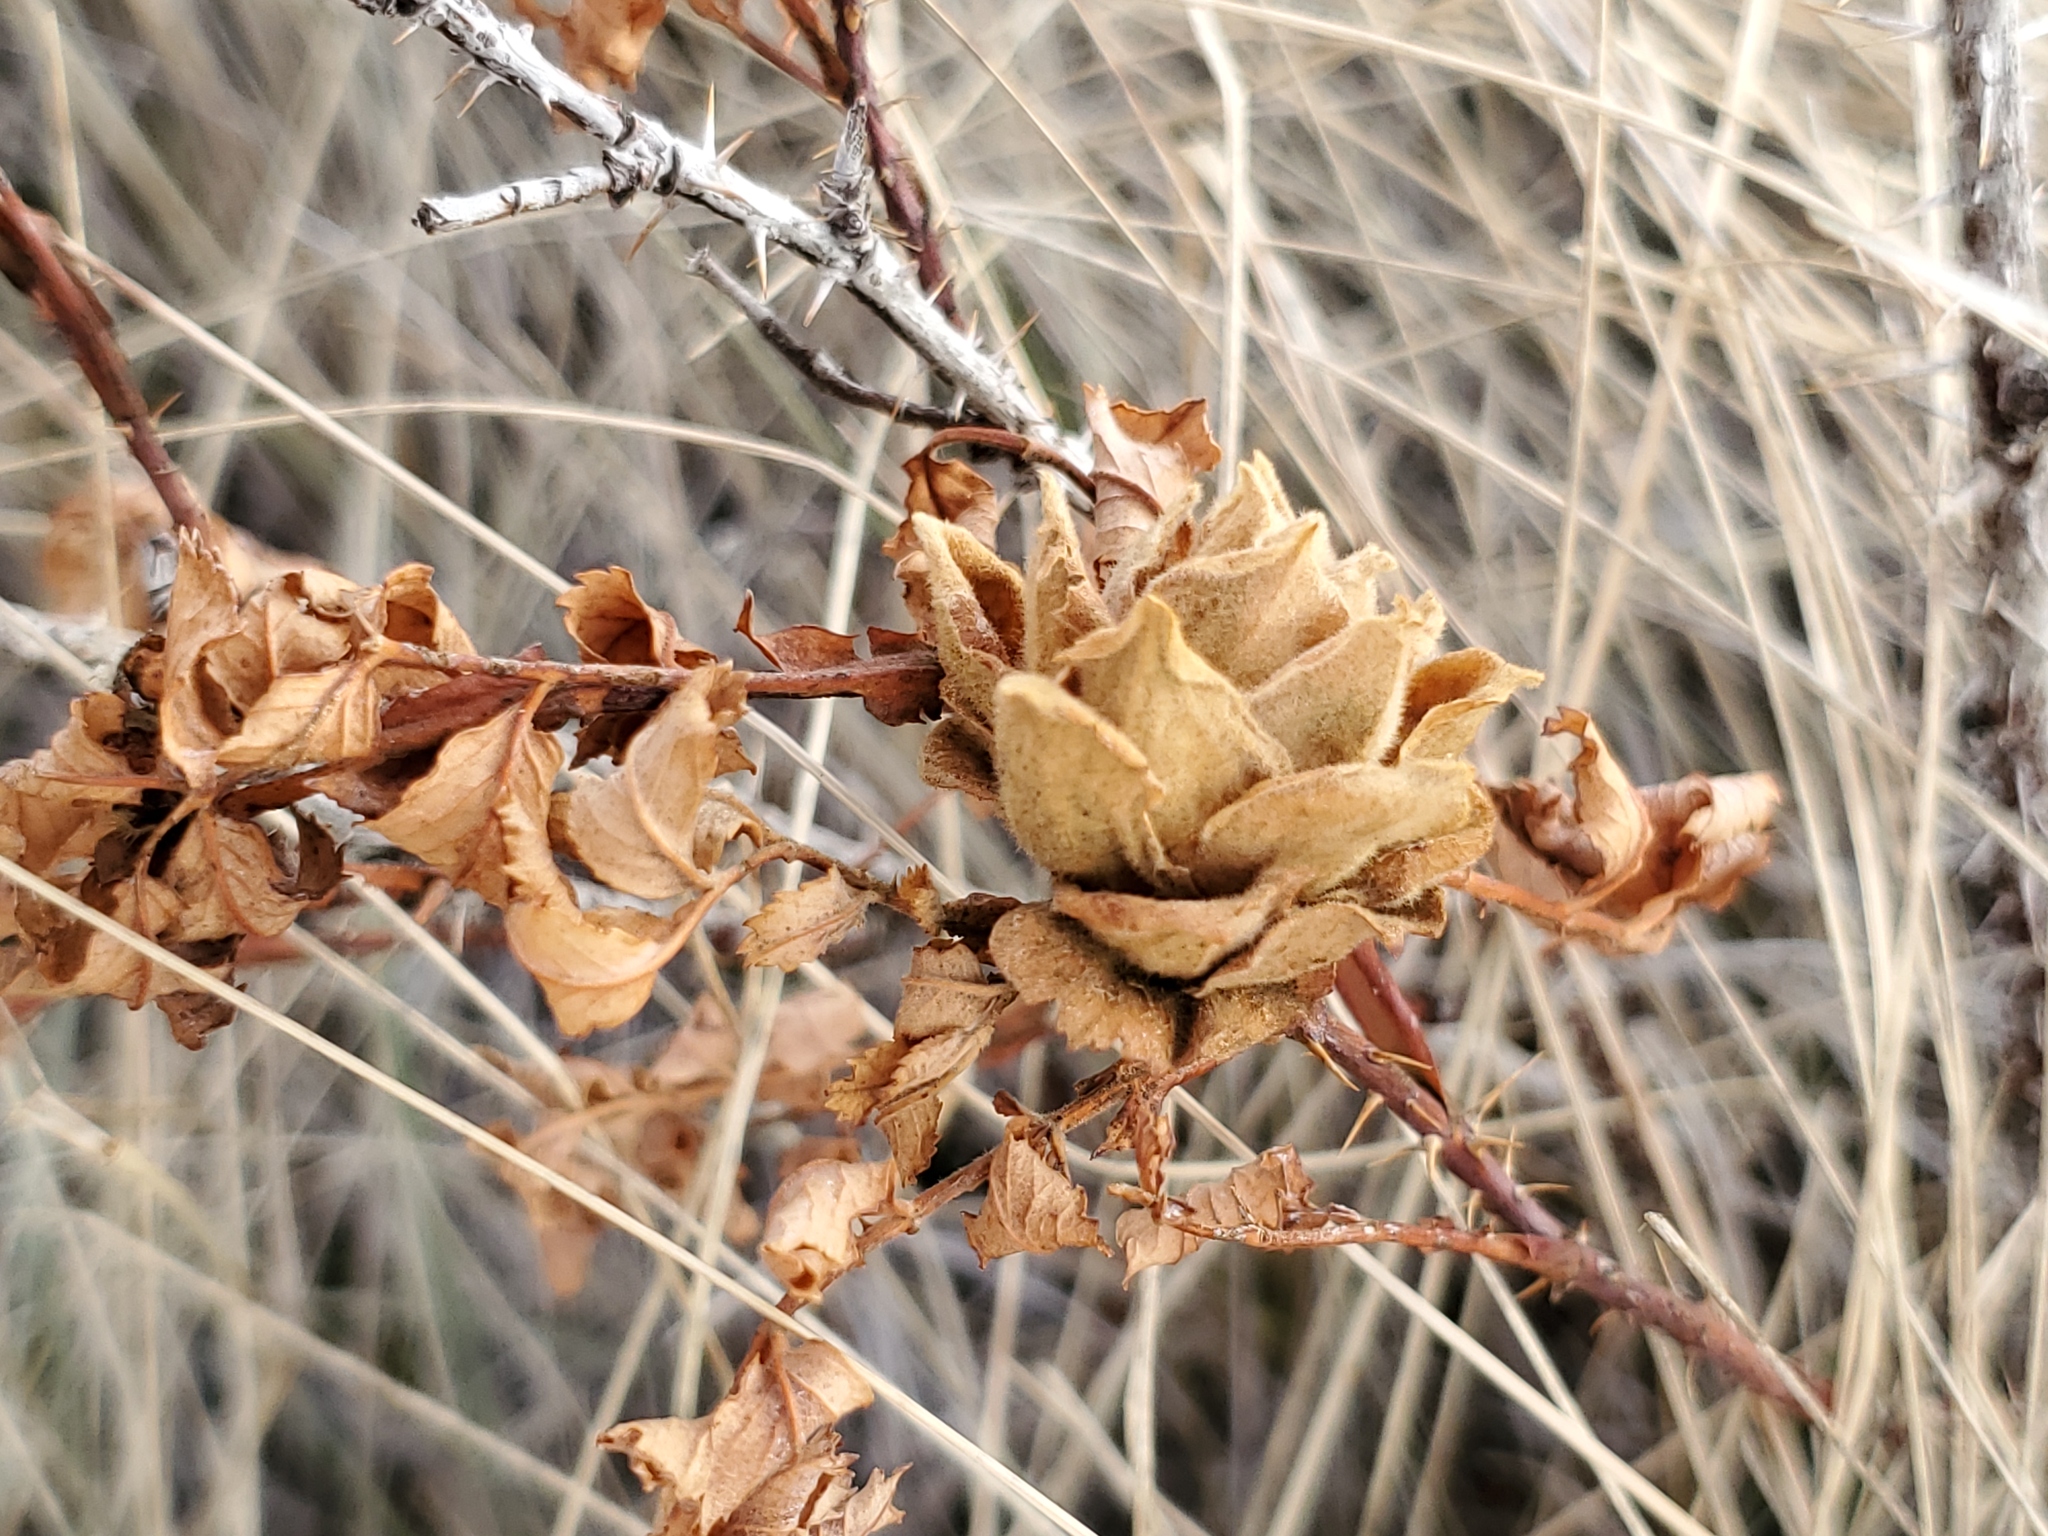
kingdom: Animalia
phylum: Arthropoda
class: Insecta
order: Diptera
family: Cecidomyiidae
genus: Rabdophaga
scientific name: Rabdophaga rosacea
